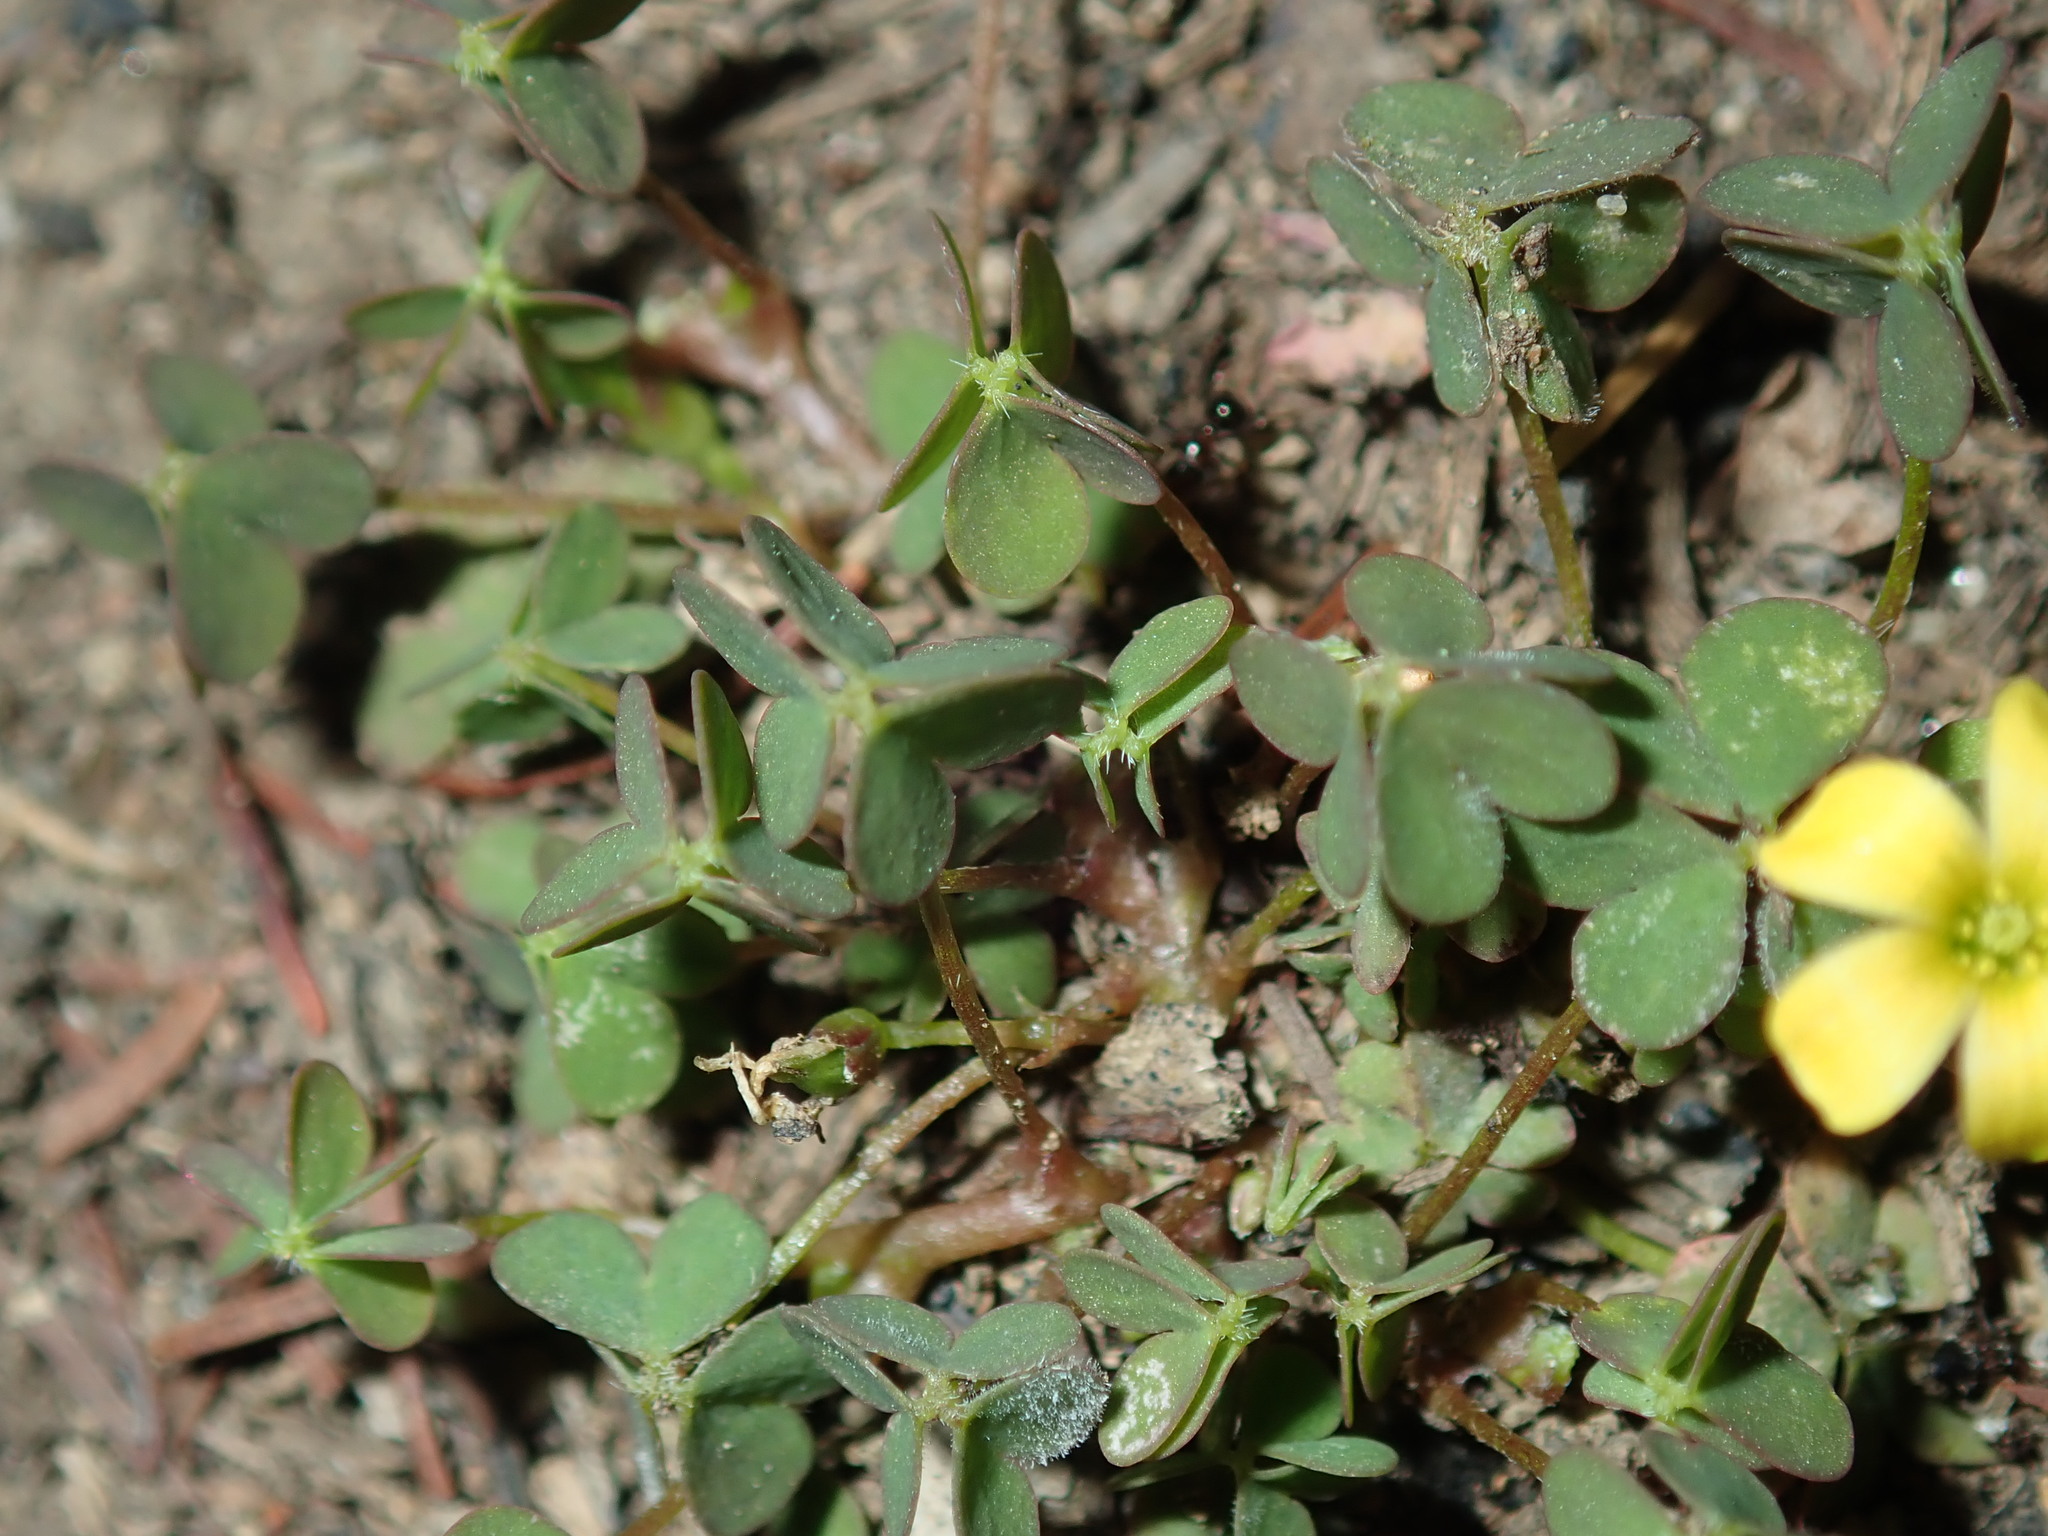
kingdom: Plantae
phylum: Tracheophyta
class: Magnoliopsida
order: Oxalidales
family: Oxalidaceae
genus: Oxalis
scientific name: Oxalis corniculata
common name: Procumbent yellow-sorrel
